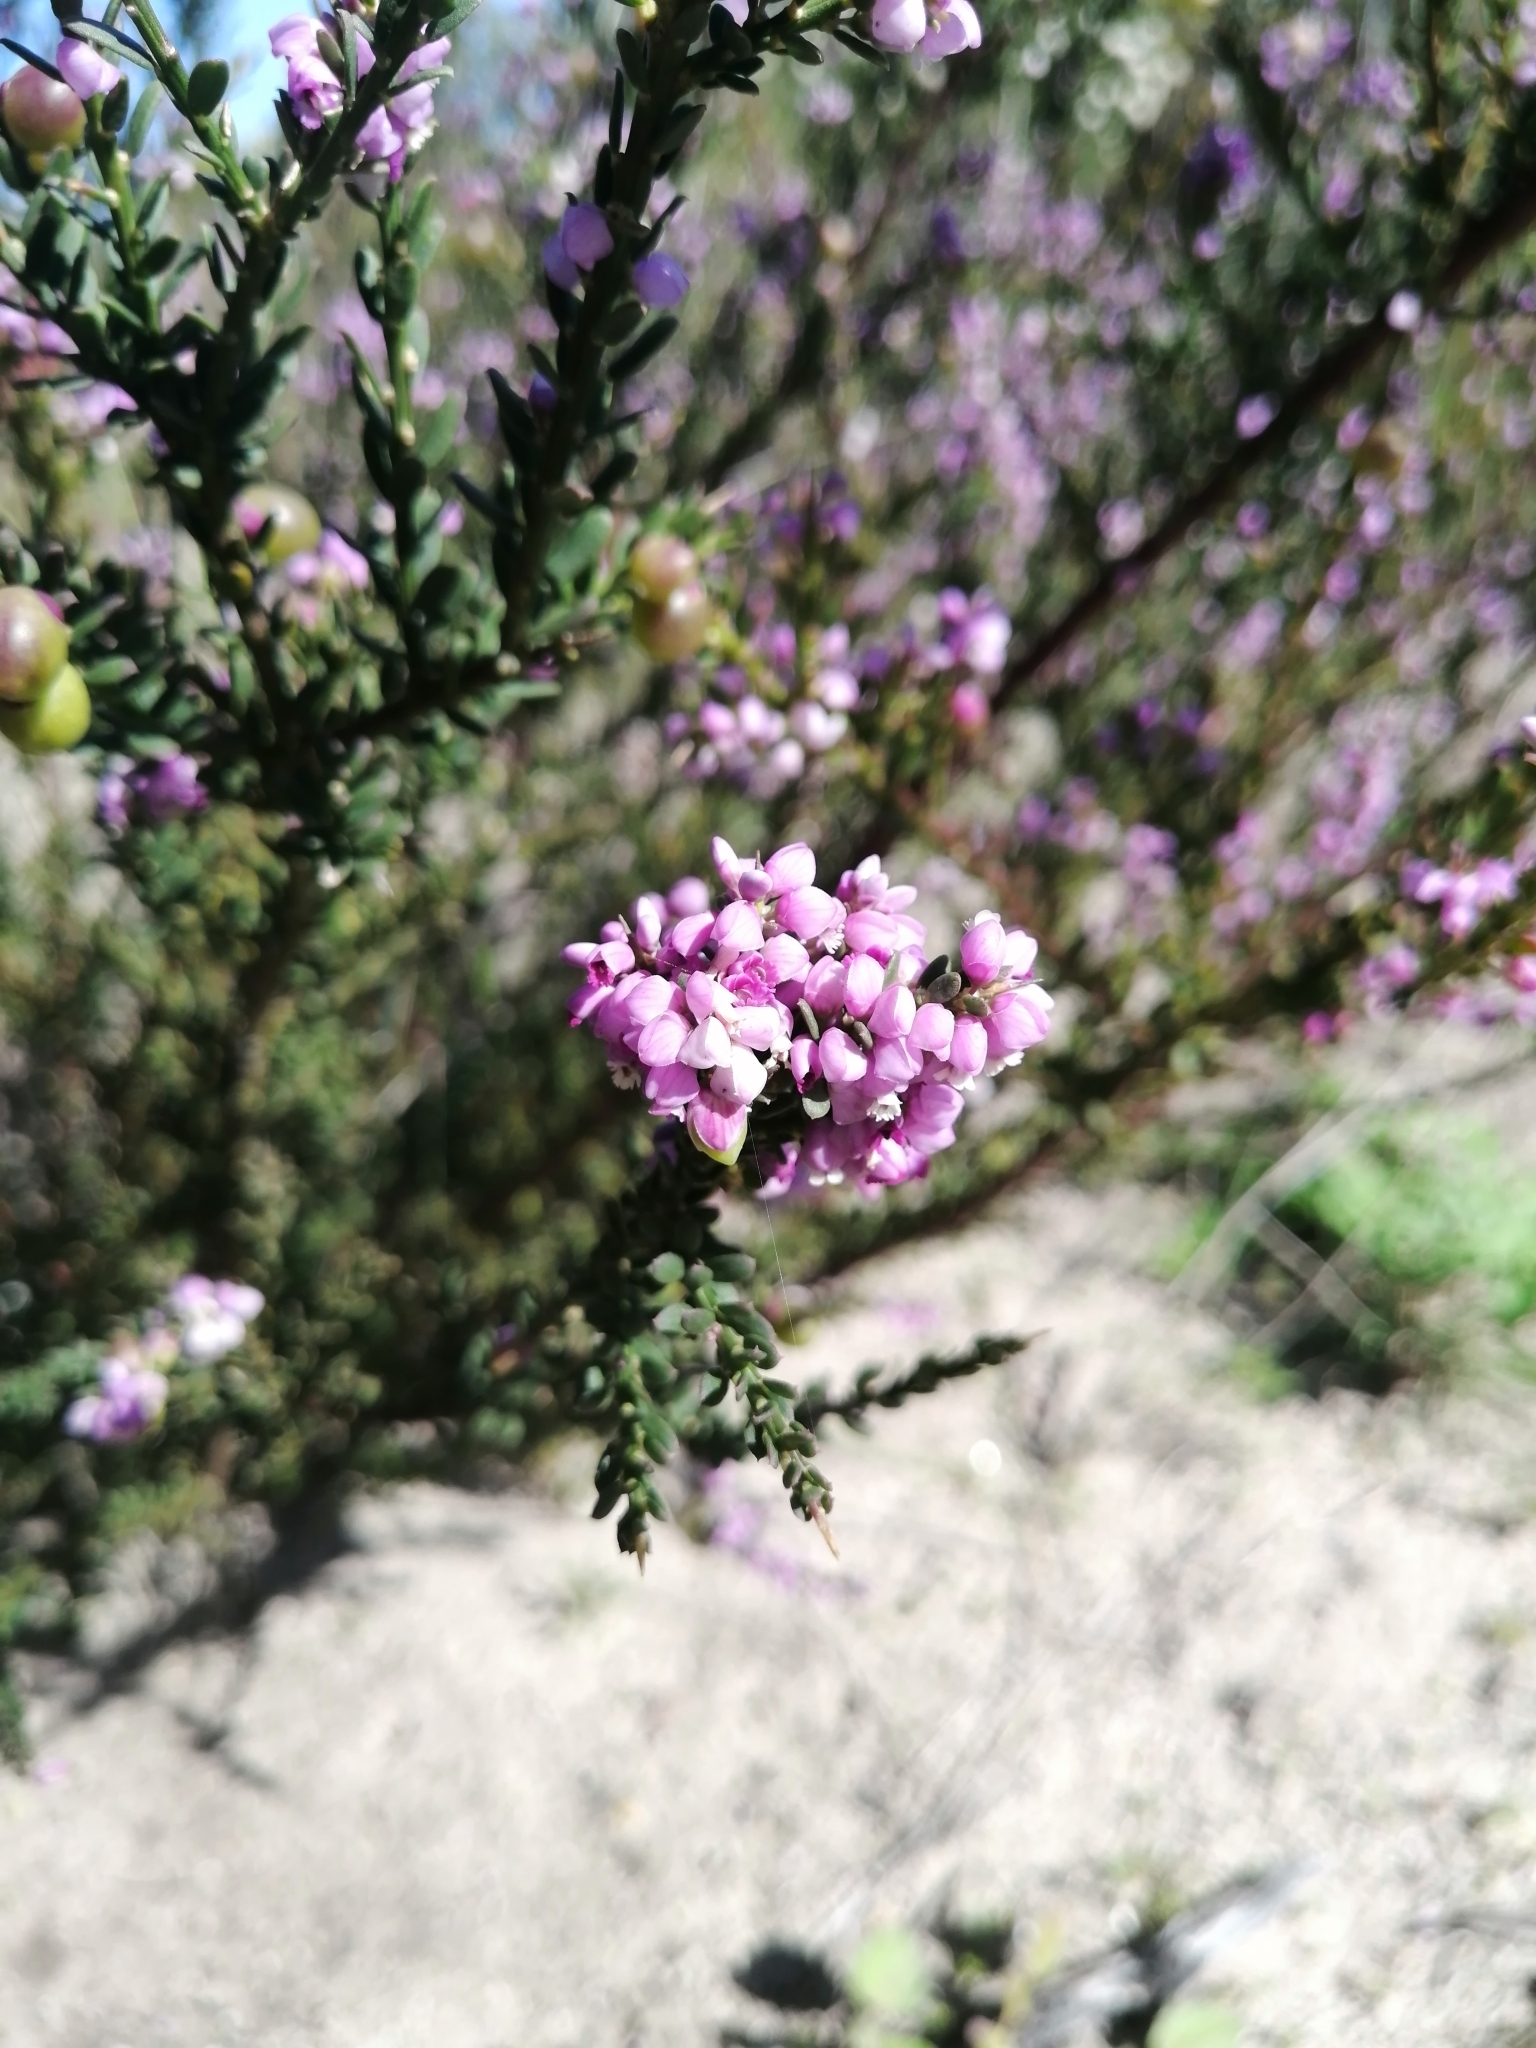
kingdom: Plantae
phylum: Tracheophyta
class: Magnoliopsida
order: Fabales
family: Polygalaceae
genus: Muraltia
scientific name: Muraltia spinosa
